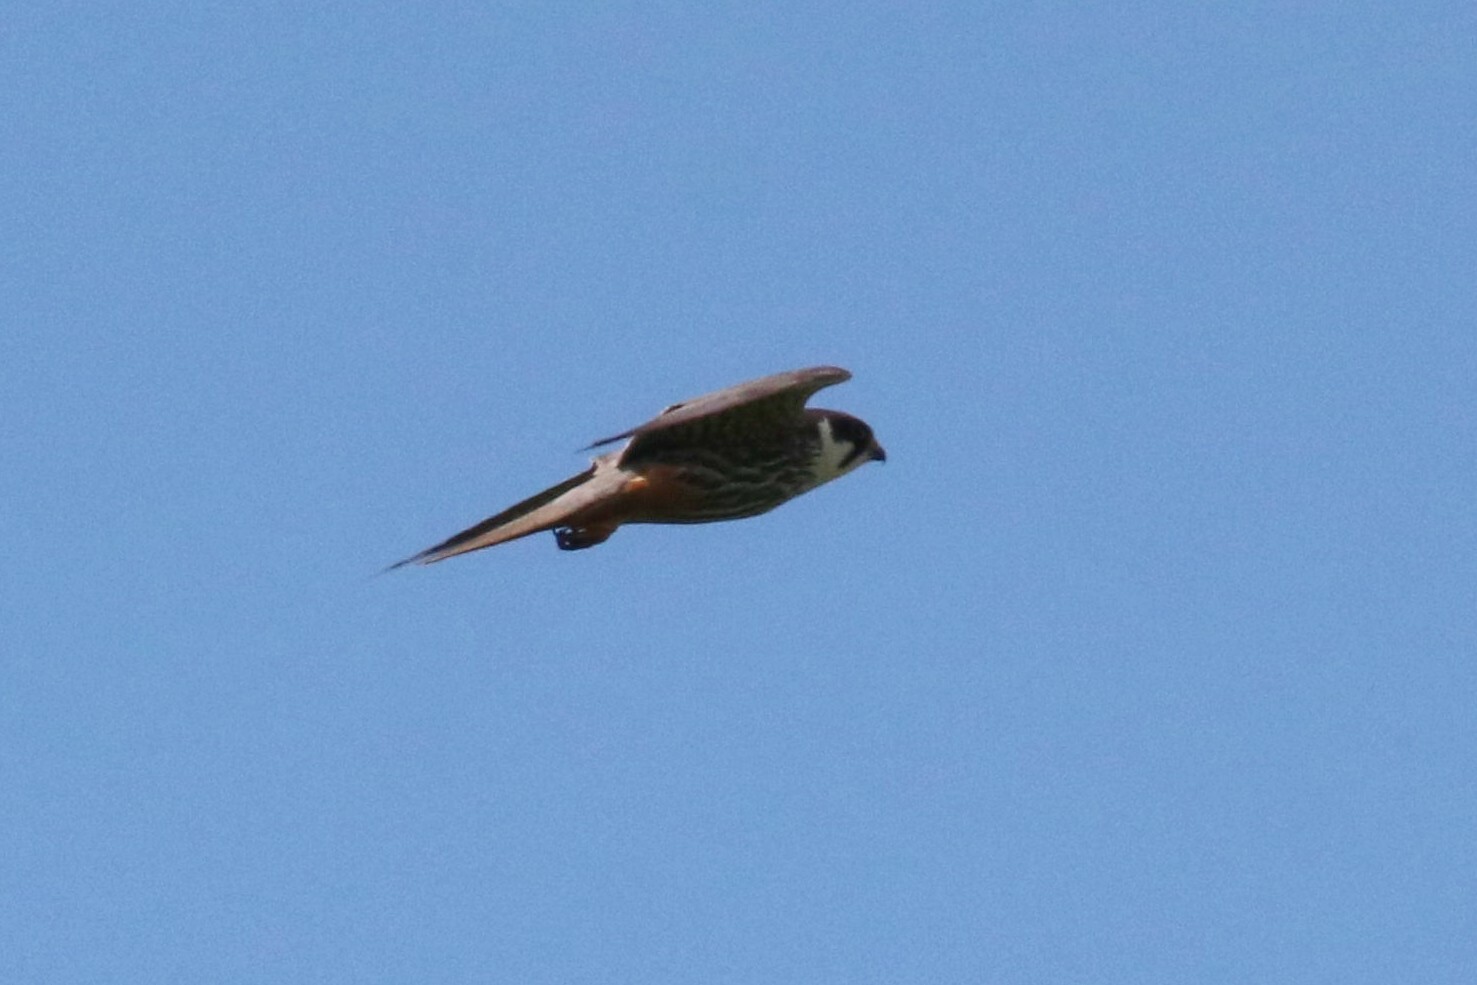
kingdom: Animalia
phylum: Chordata
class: Aves
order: Falconiformes
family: Falconidae
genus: Falco
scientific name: Falco subbuteo
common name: Eurasian hobby
